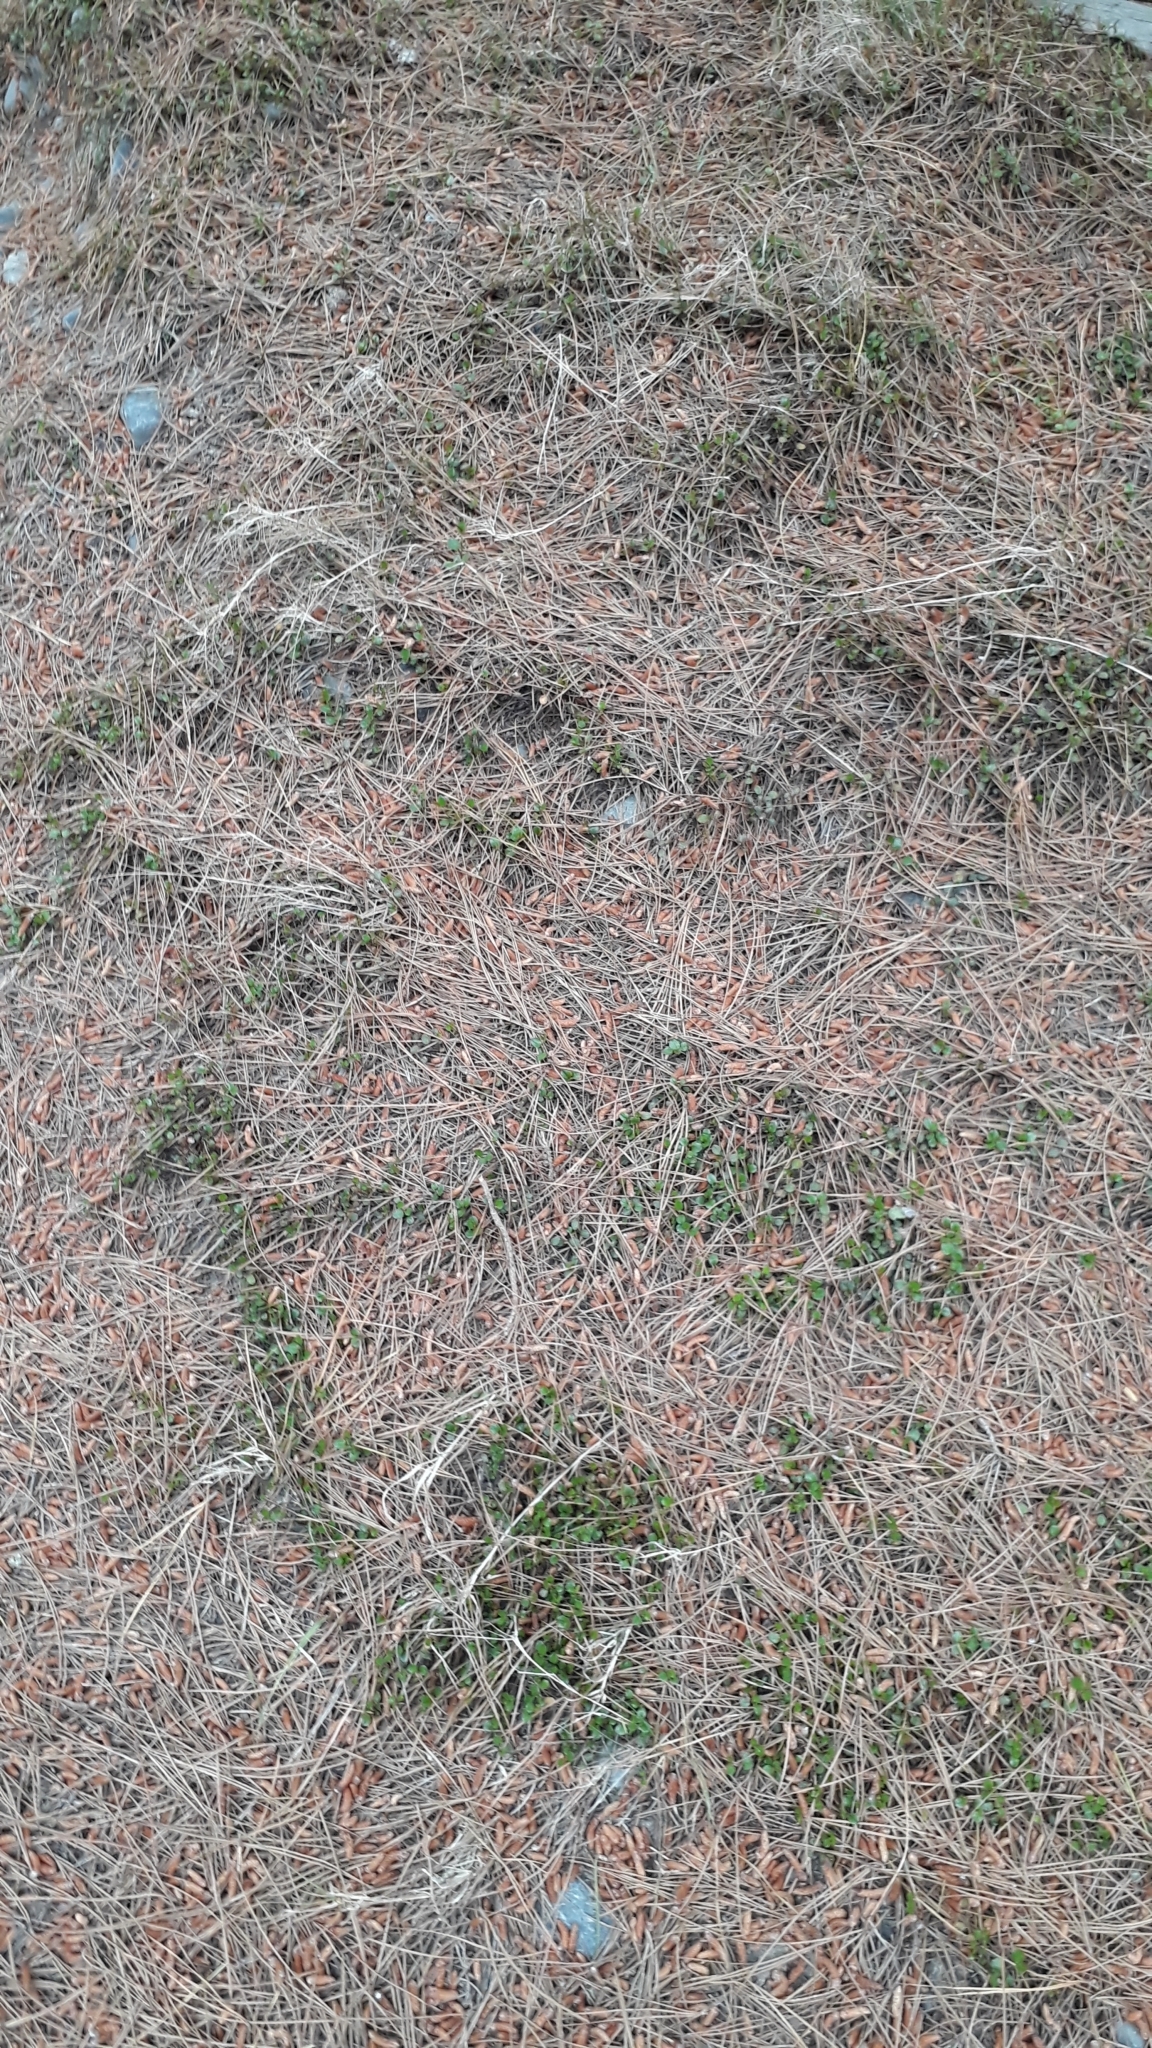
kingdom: Plantae
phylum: Tracheophyta
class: Magnoliopsida
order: Caryophyllales
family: Polygonaceae
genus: Muehlenbeckia
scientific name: Muehlenbeckia axillaris
